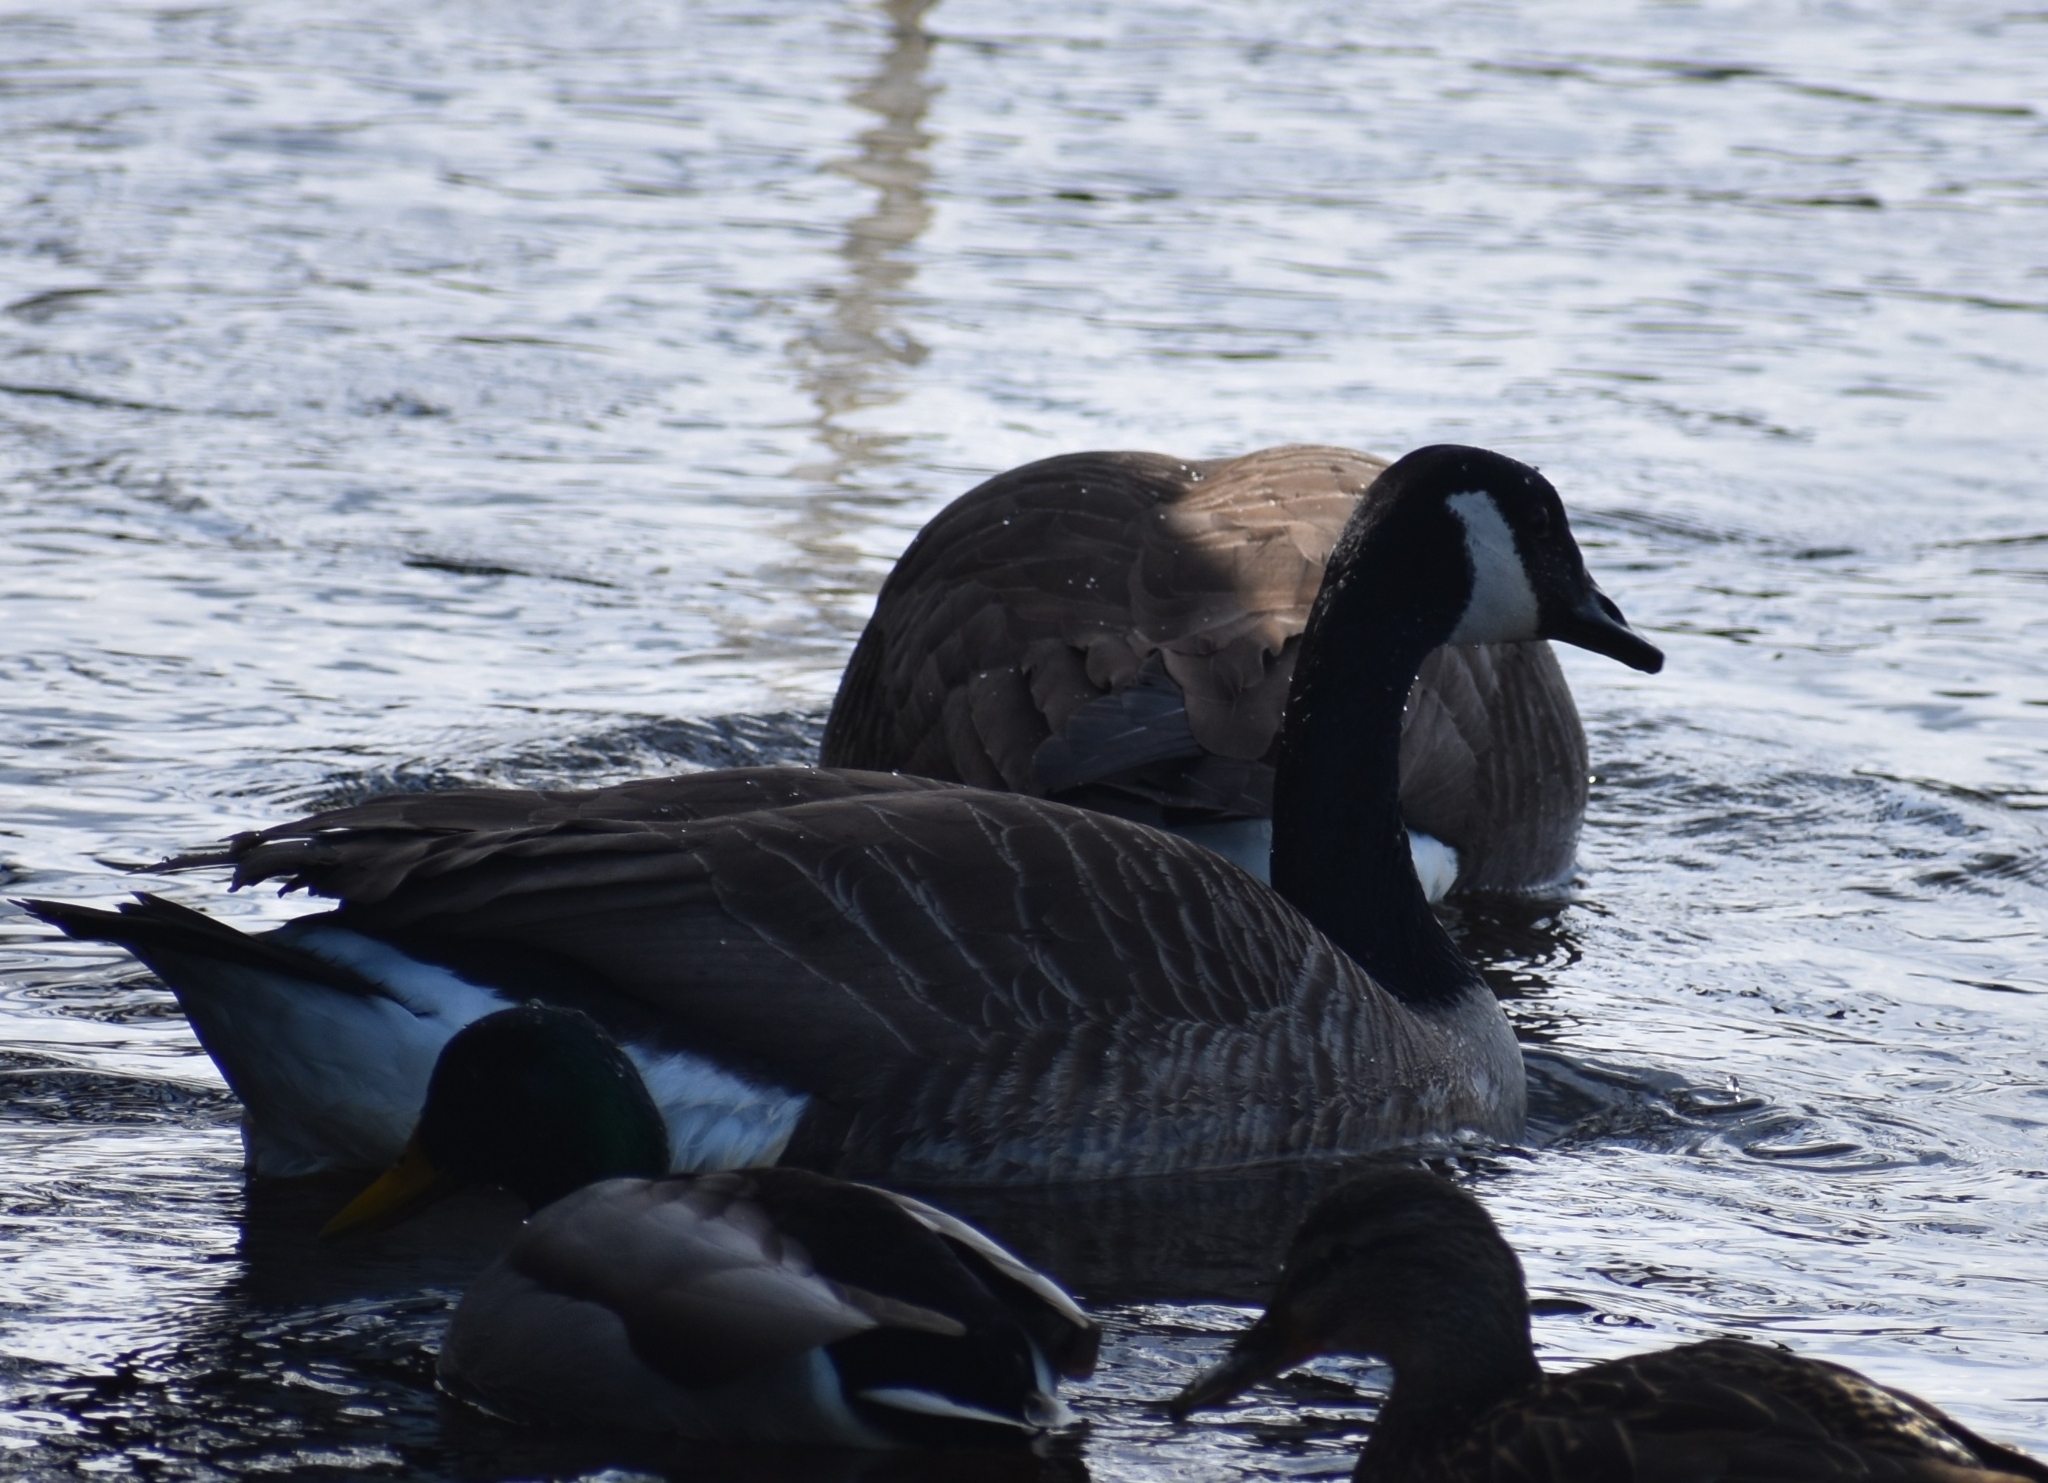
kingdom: Animalia
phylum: Chordata
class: Aves
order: Anseriformes
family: Anatidae
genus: Branta
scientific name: Branta canadensis
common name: Canada goose
